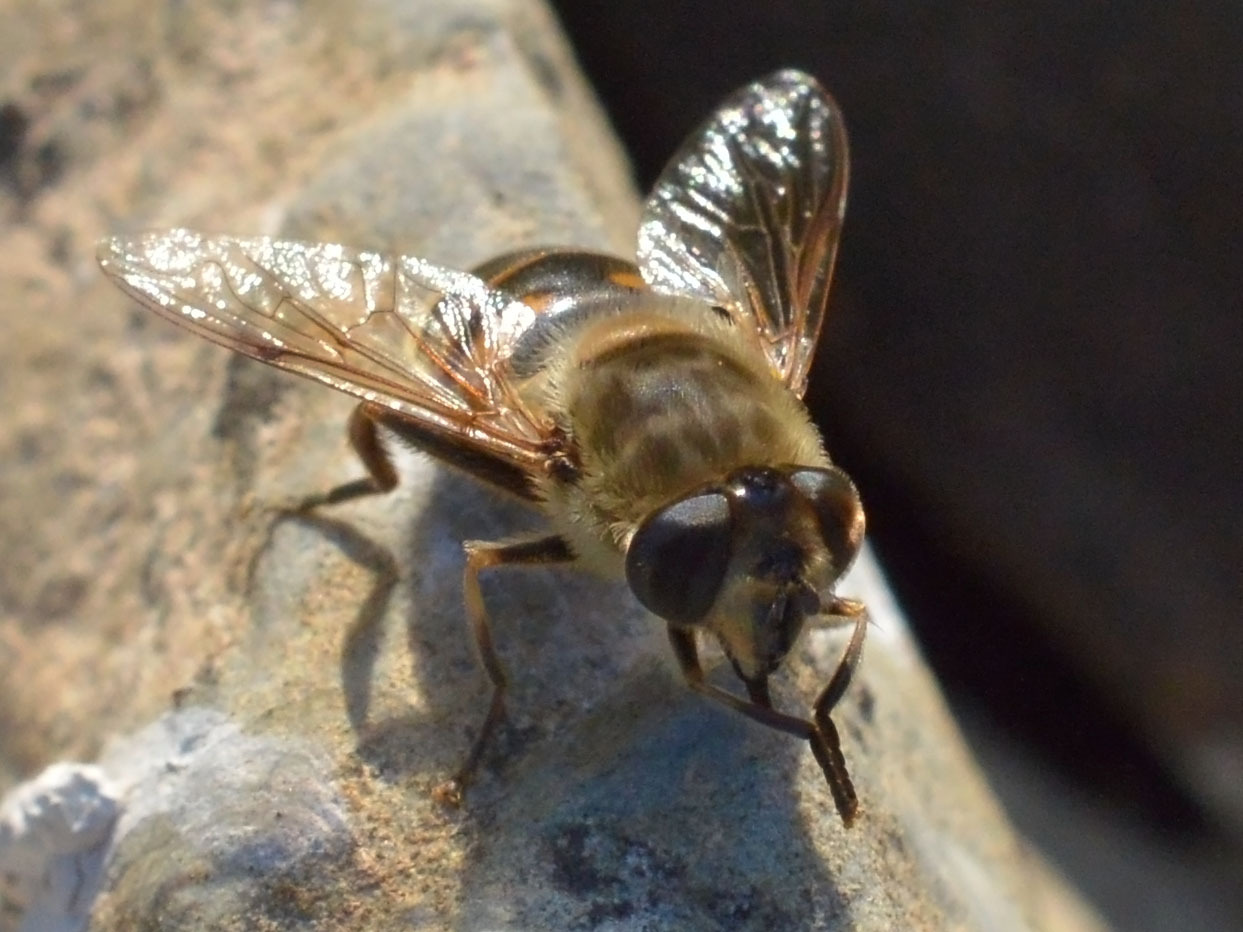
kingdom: Animalia
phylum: Arthropoda
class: Insecta
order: Diptera
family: Syrphidae
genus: Eristalis
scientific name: Eristalis tenax
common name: Drone fly
